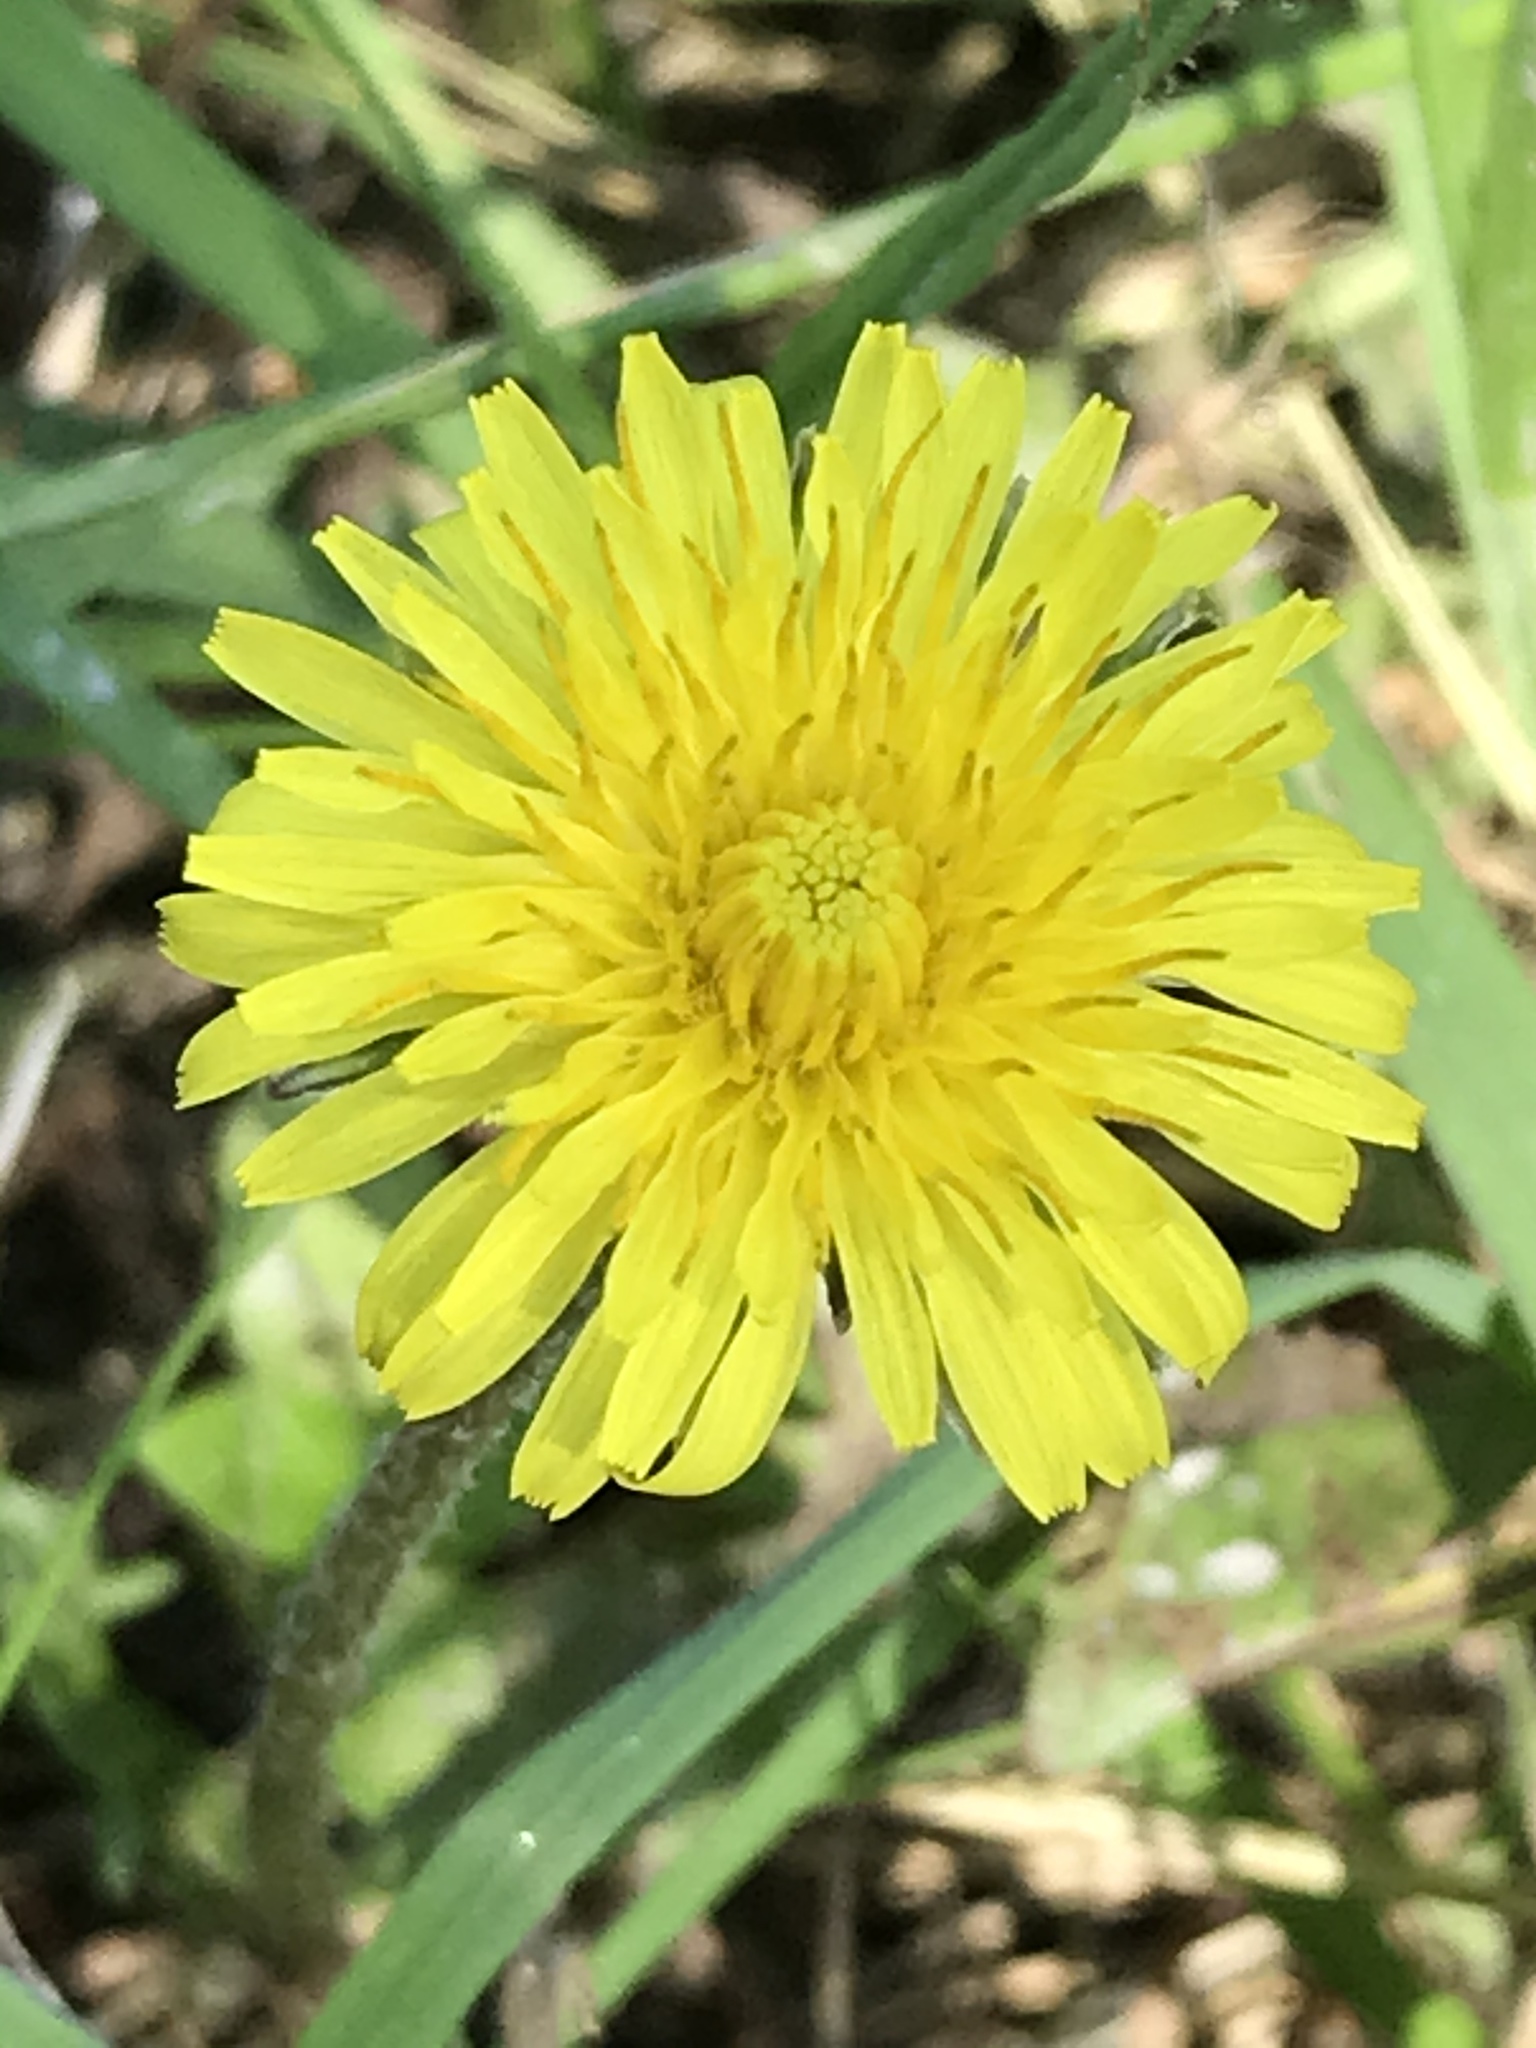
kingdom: Plantae
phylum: Tracheophyta
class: Magnoliopsida
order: Asterales
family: Asteraceae
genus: Taraxacum
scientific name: Taraxacum officinale
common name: Common dandelion
